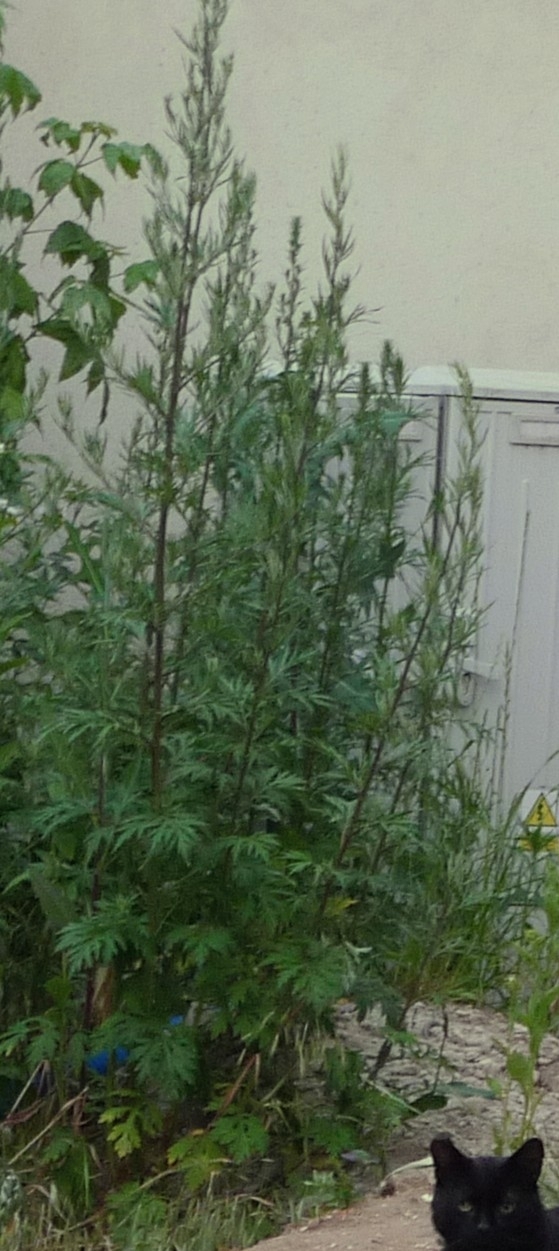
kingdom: Plantae
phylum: Tracheophyta
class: Magnoliopsida
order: Asterales
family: Asteraceae
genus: Artemisia
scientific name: Artemisia vulgaris
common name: Mugwort
